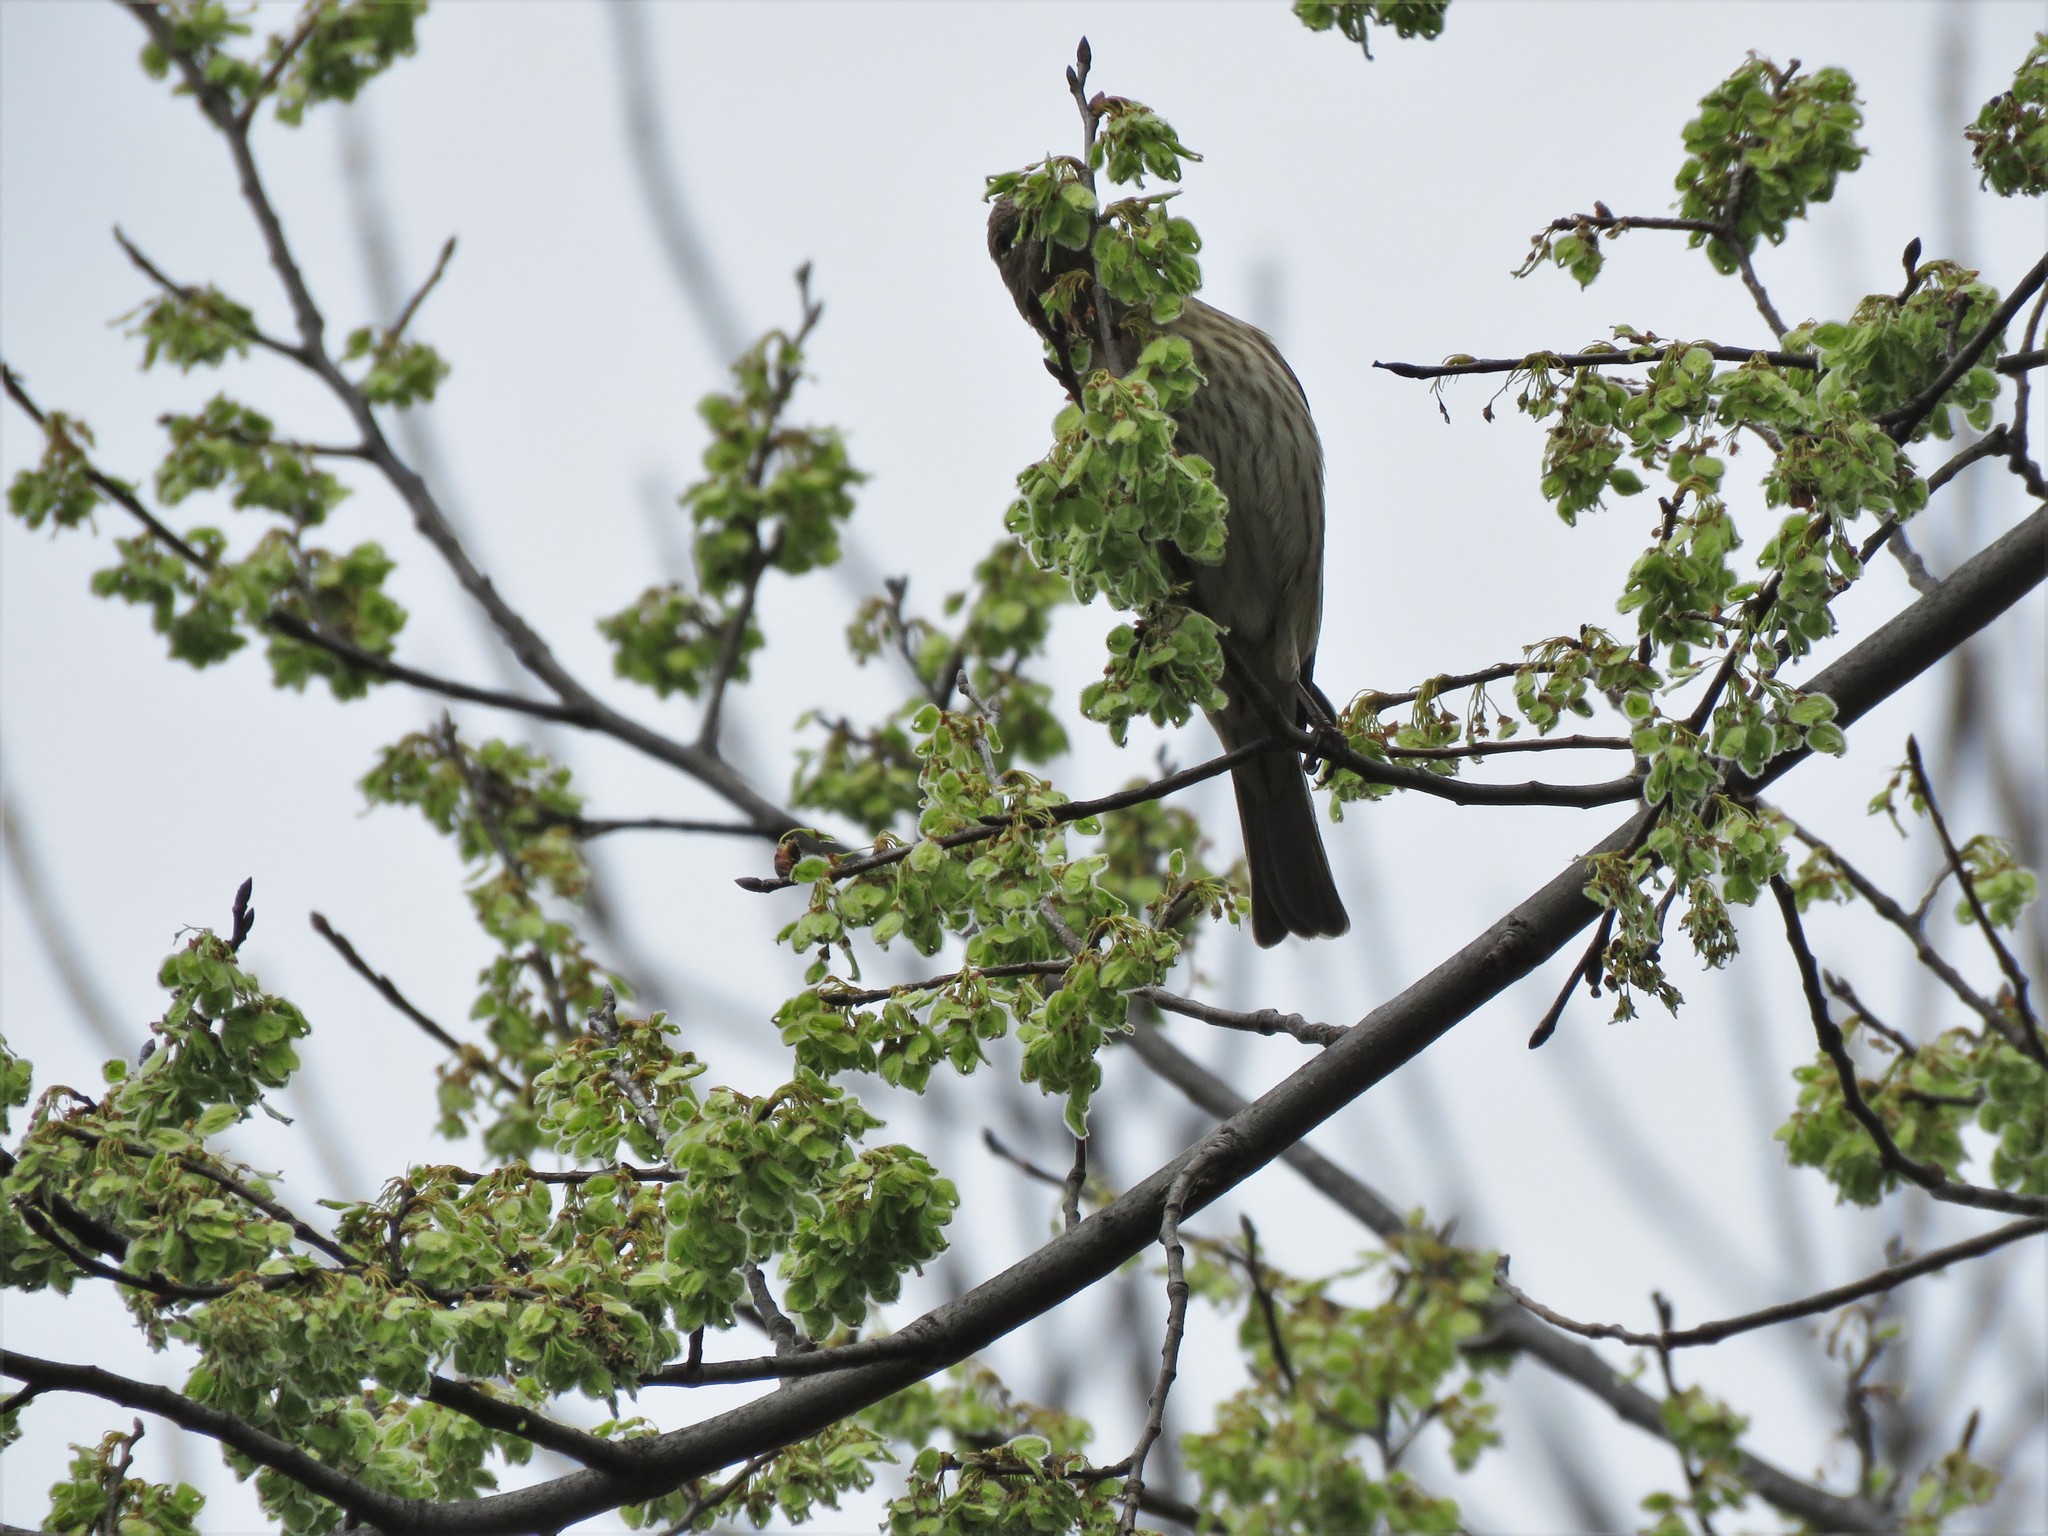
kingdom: Plantae
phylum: Tracheophyta
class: Magnoliopsida
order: Rosales
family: Ulmaceae
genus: Ulmus
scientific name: Ulmus americana
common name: American elm
